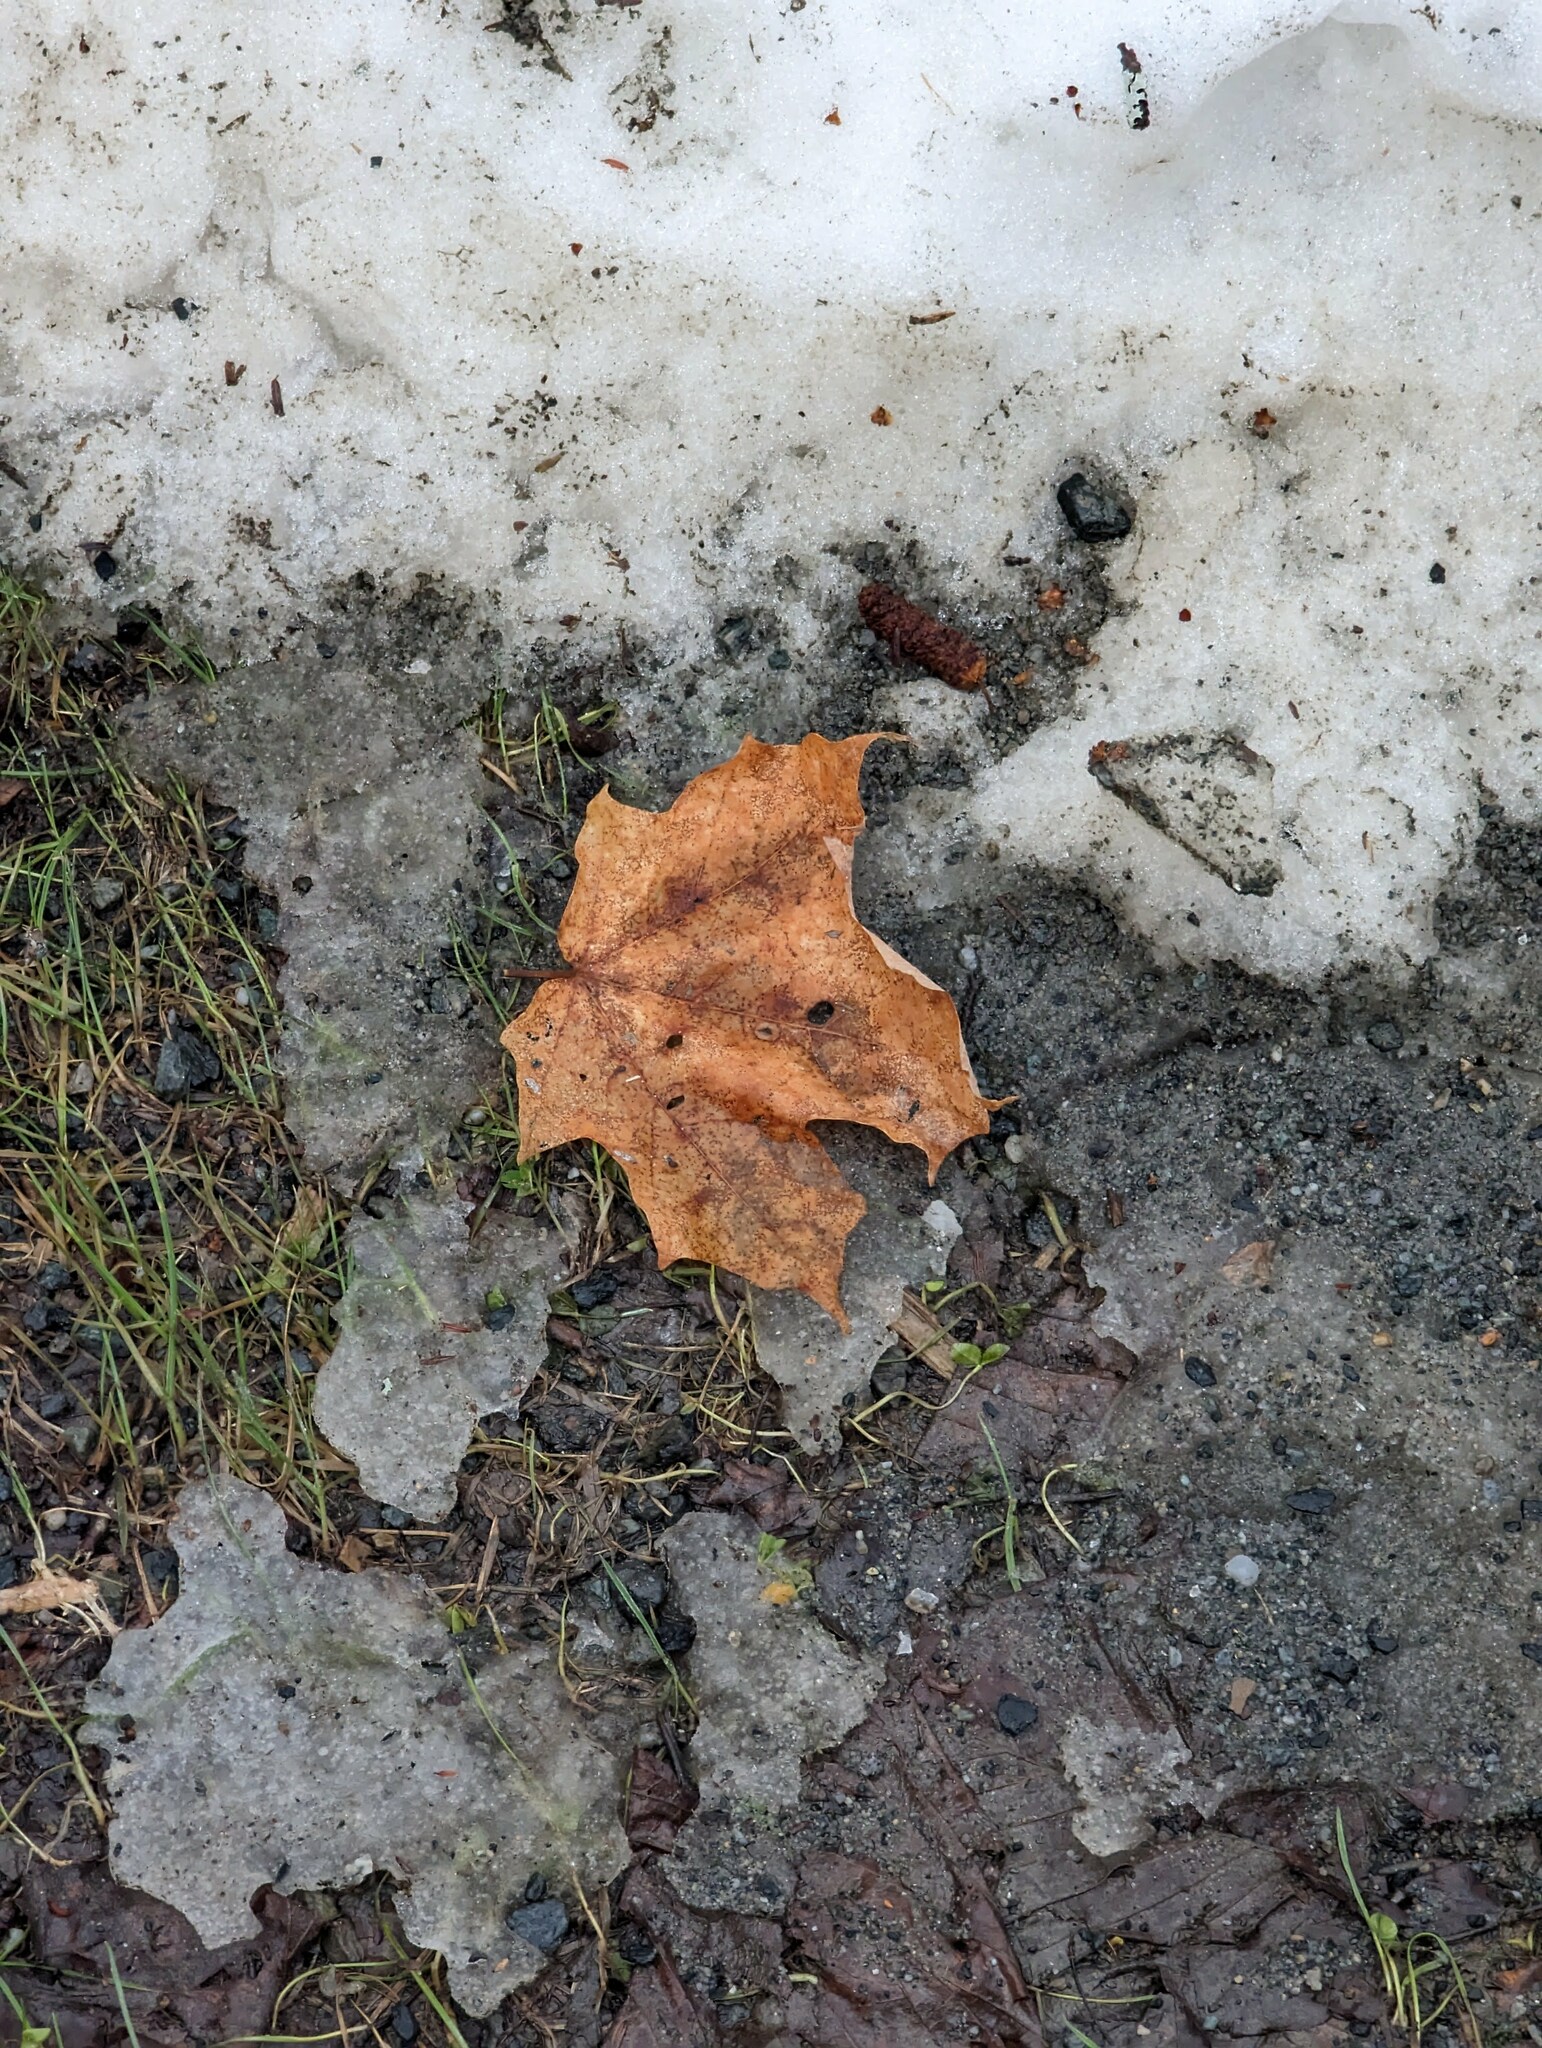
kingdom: Plantae
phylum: Tracheophyta
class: Magnoliopsida
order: Sapindales
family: Sapindaceae
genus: Acer
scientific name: Acer saccharum
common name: Sugar maple
